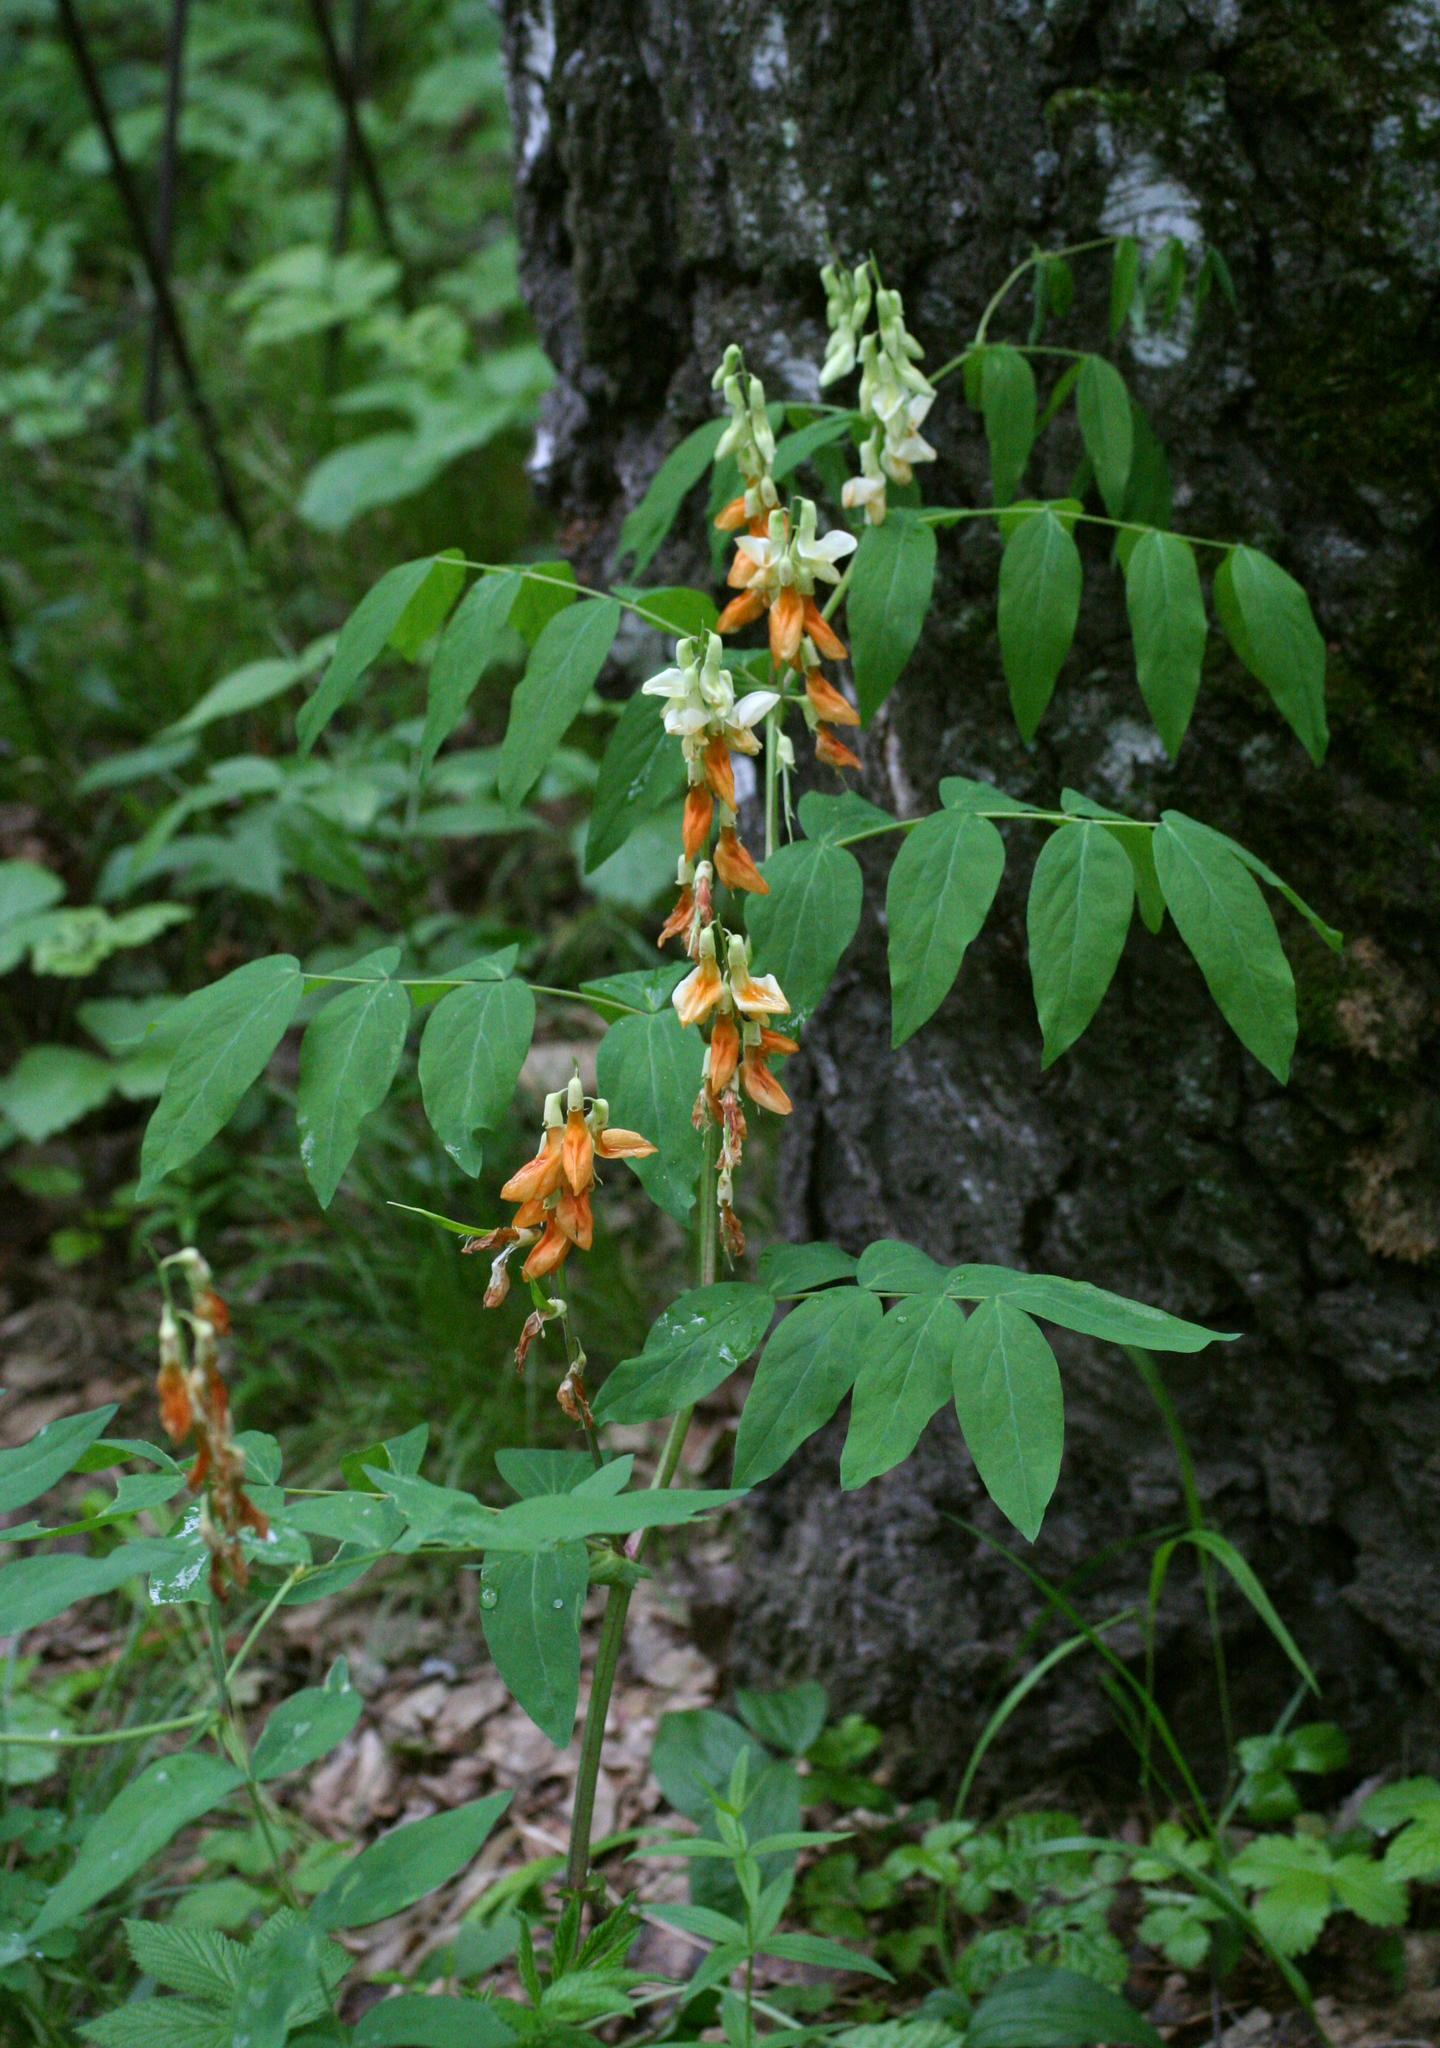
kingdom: Plantae
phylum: Tracheophyta
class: Magnoliopsida
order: Fabales
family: Fabaceae
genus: Lathyrus
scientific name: Lathyrus gmelinii
